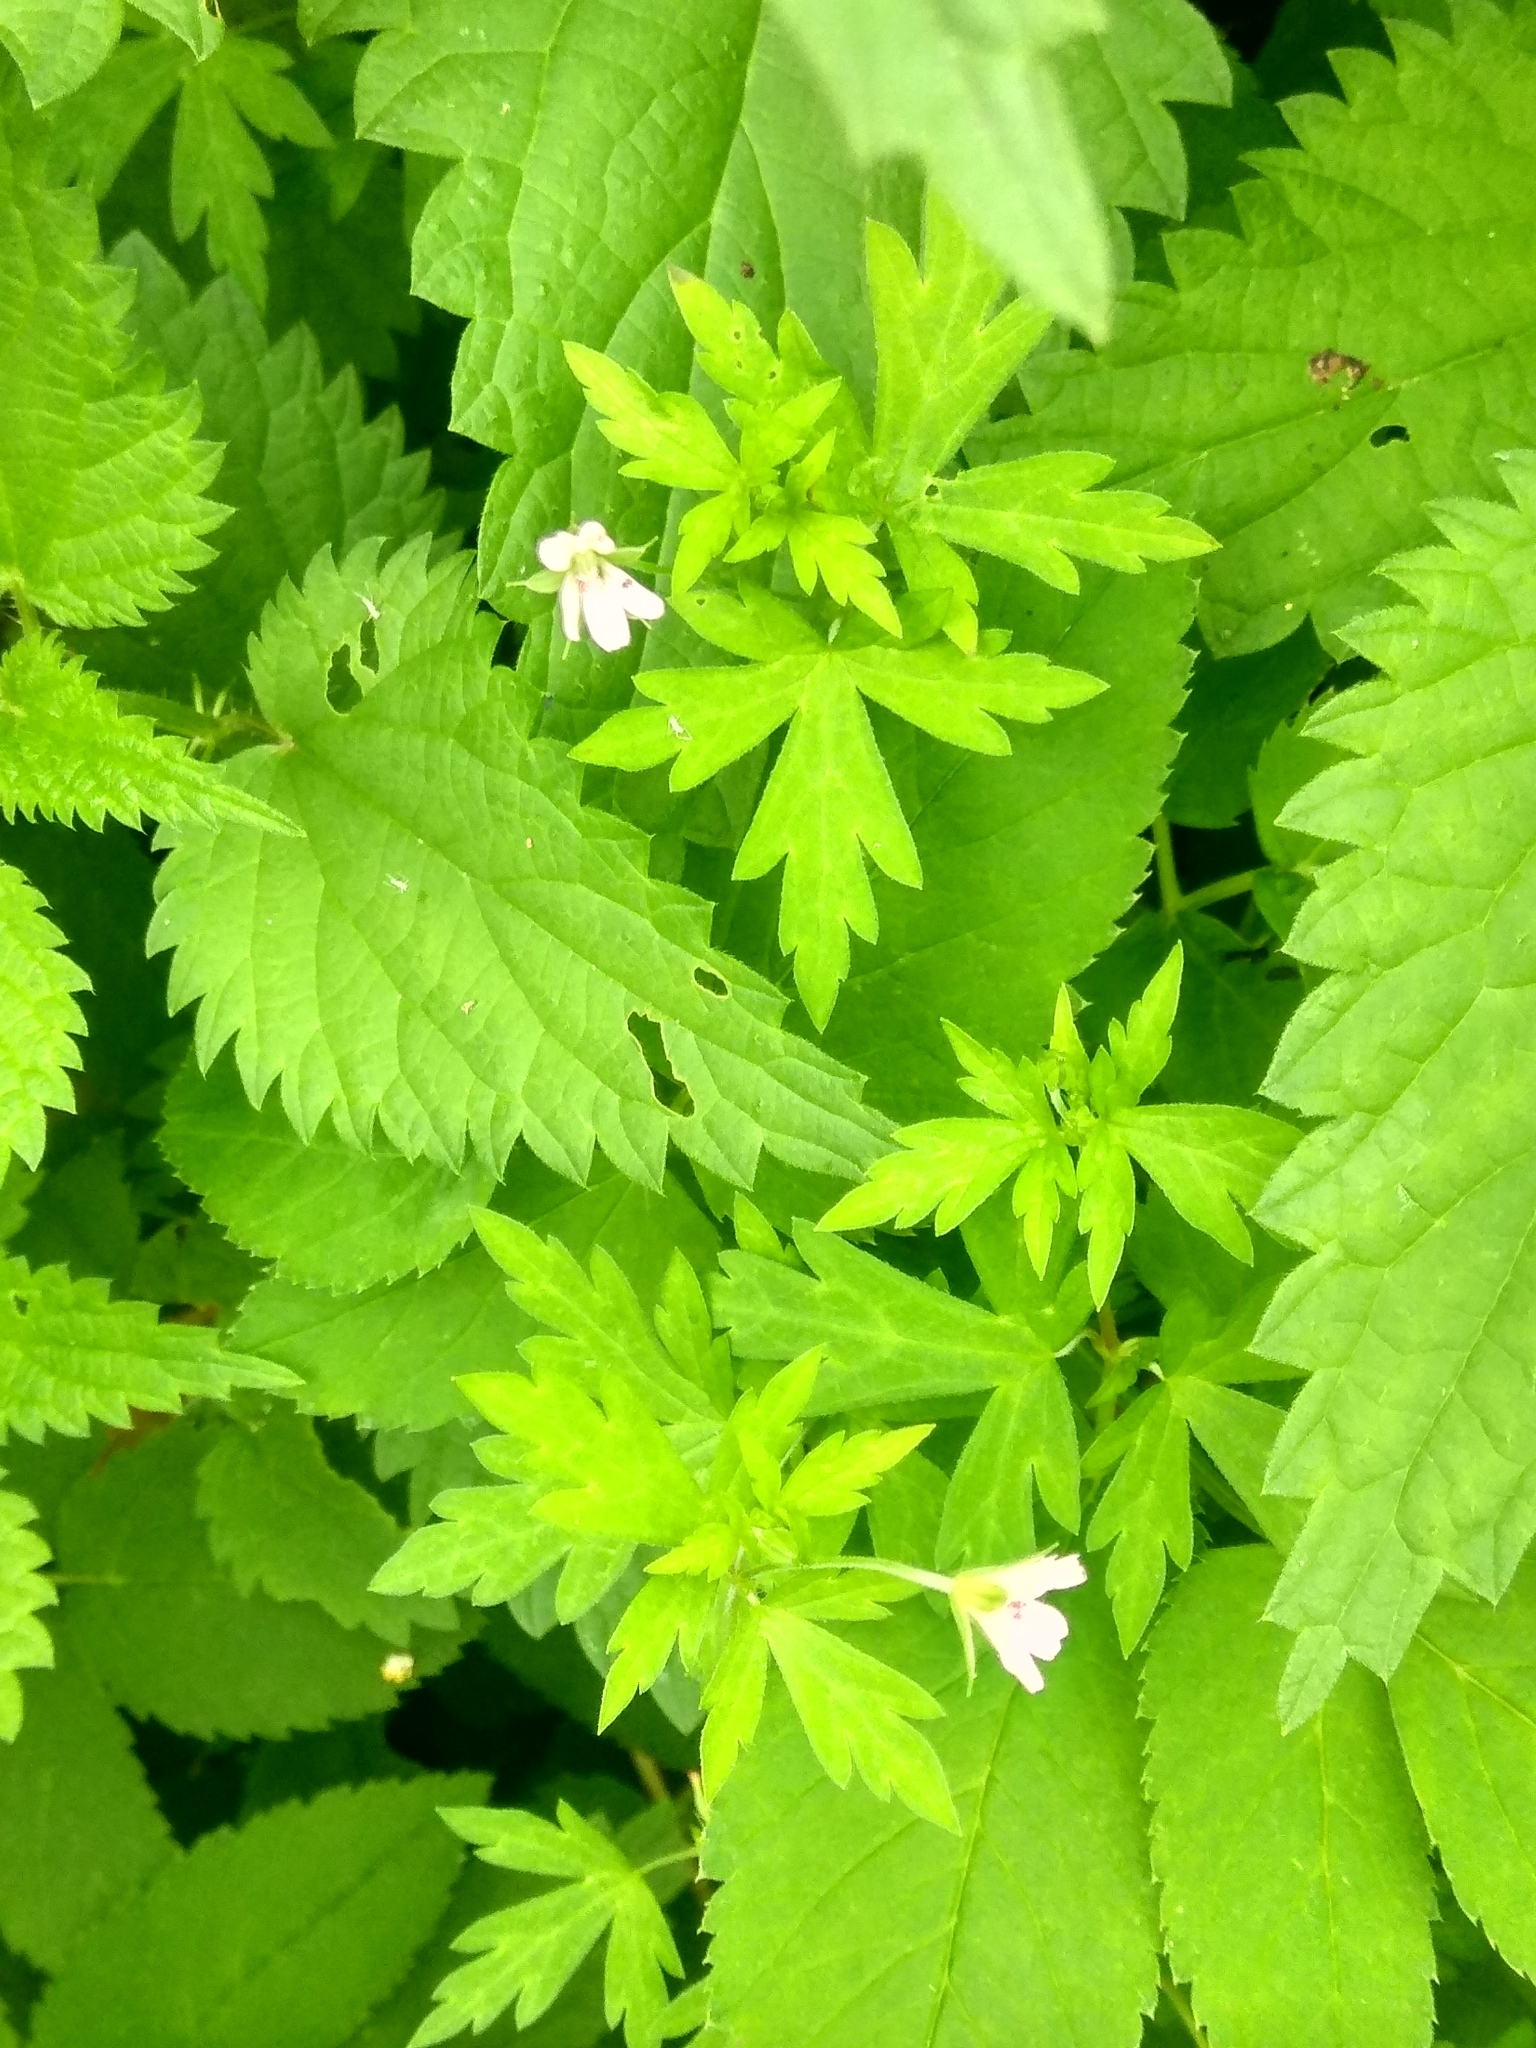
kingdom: Plantae
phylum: Tracheophyta
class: Magnoliopsida
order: Geraniales
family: Geraniaceae
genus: Geranium
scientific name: Geranium sibiricum
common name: Siberian crane's-bill
